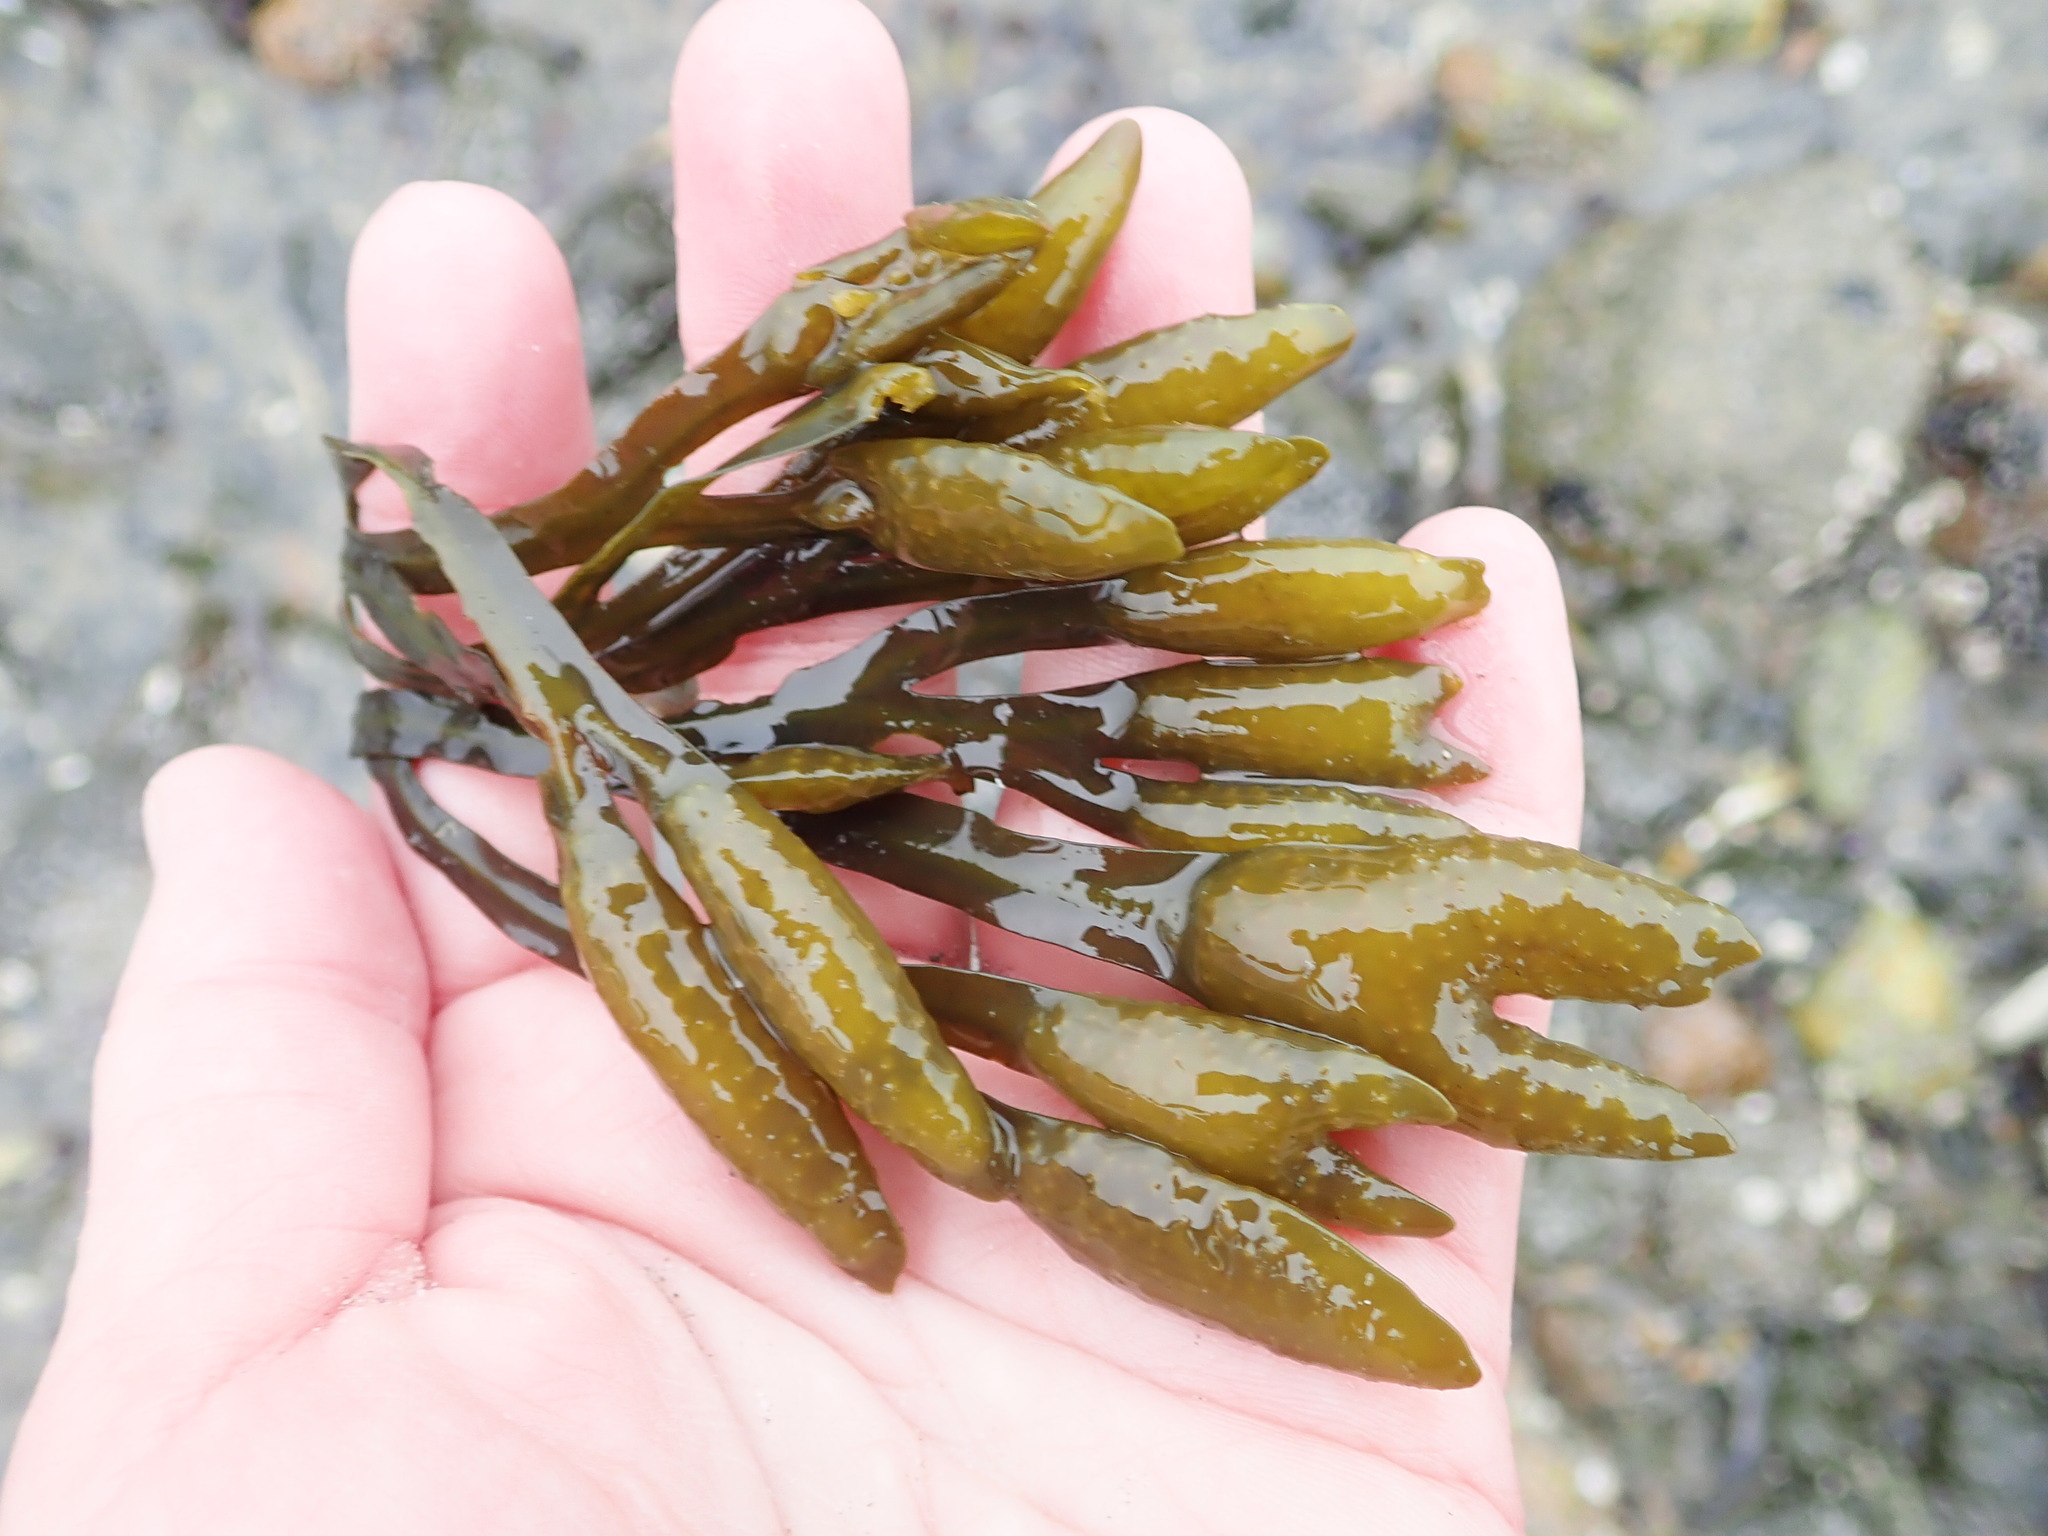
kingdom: Chromista
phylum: Ochrophyta
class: Phaeophyceae
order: Fucales
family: Fucaceae
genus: Fucus
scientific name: Fucus distichus
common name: Rockweed
